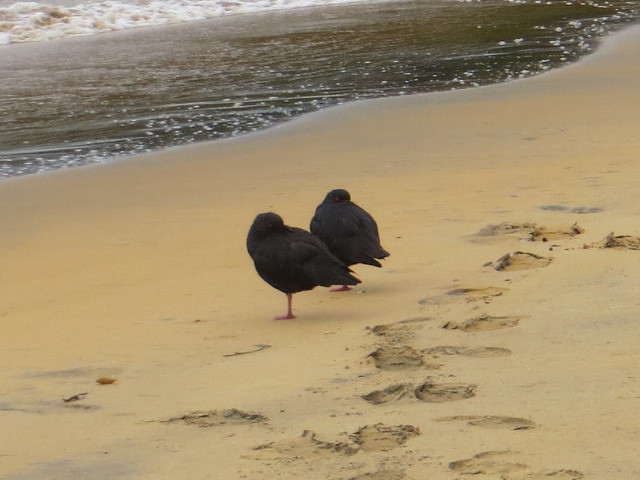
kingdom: Animalia
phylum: Chordata
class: Aves
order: Charadriiformes
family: Haematopodidae
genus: Haematopus
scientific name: Haematopus unicolor
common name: Variable oystercatcher
